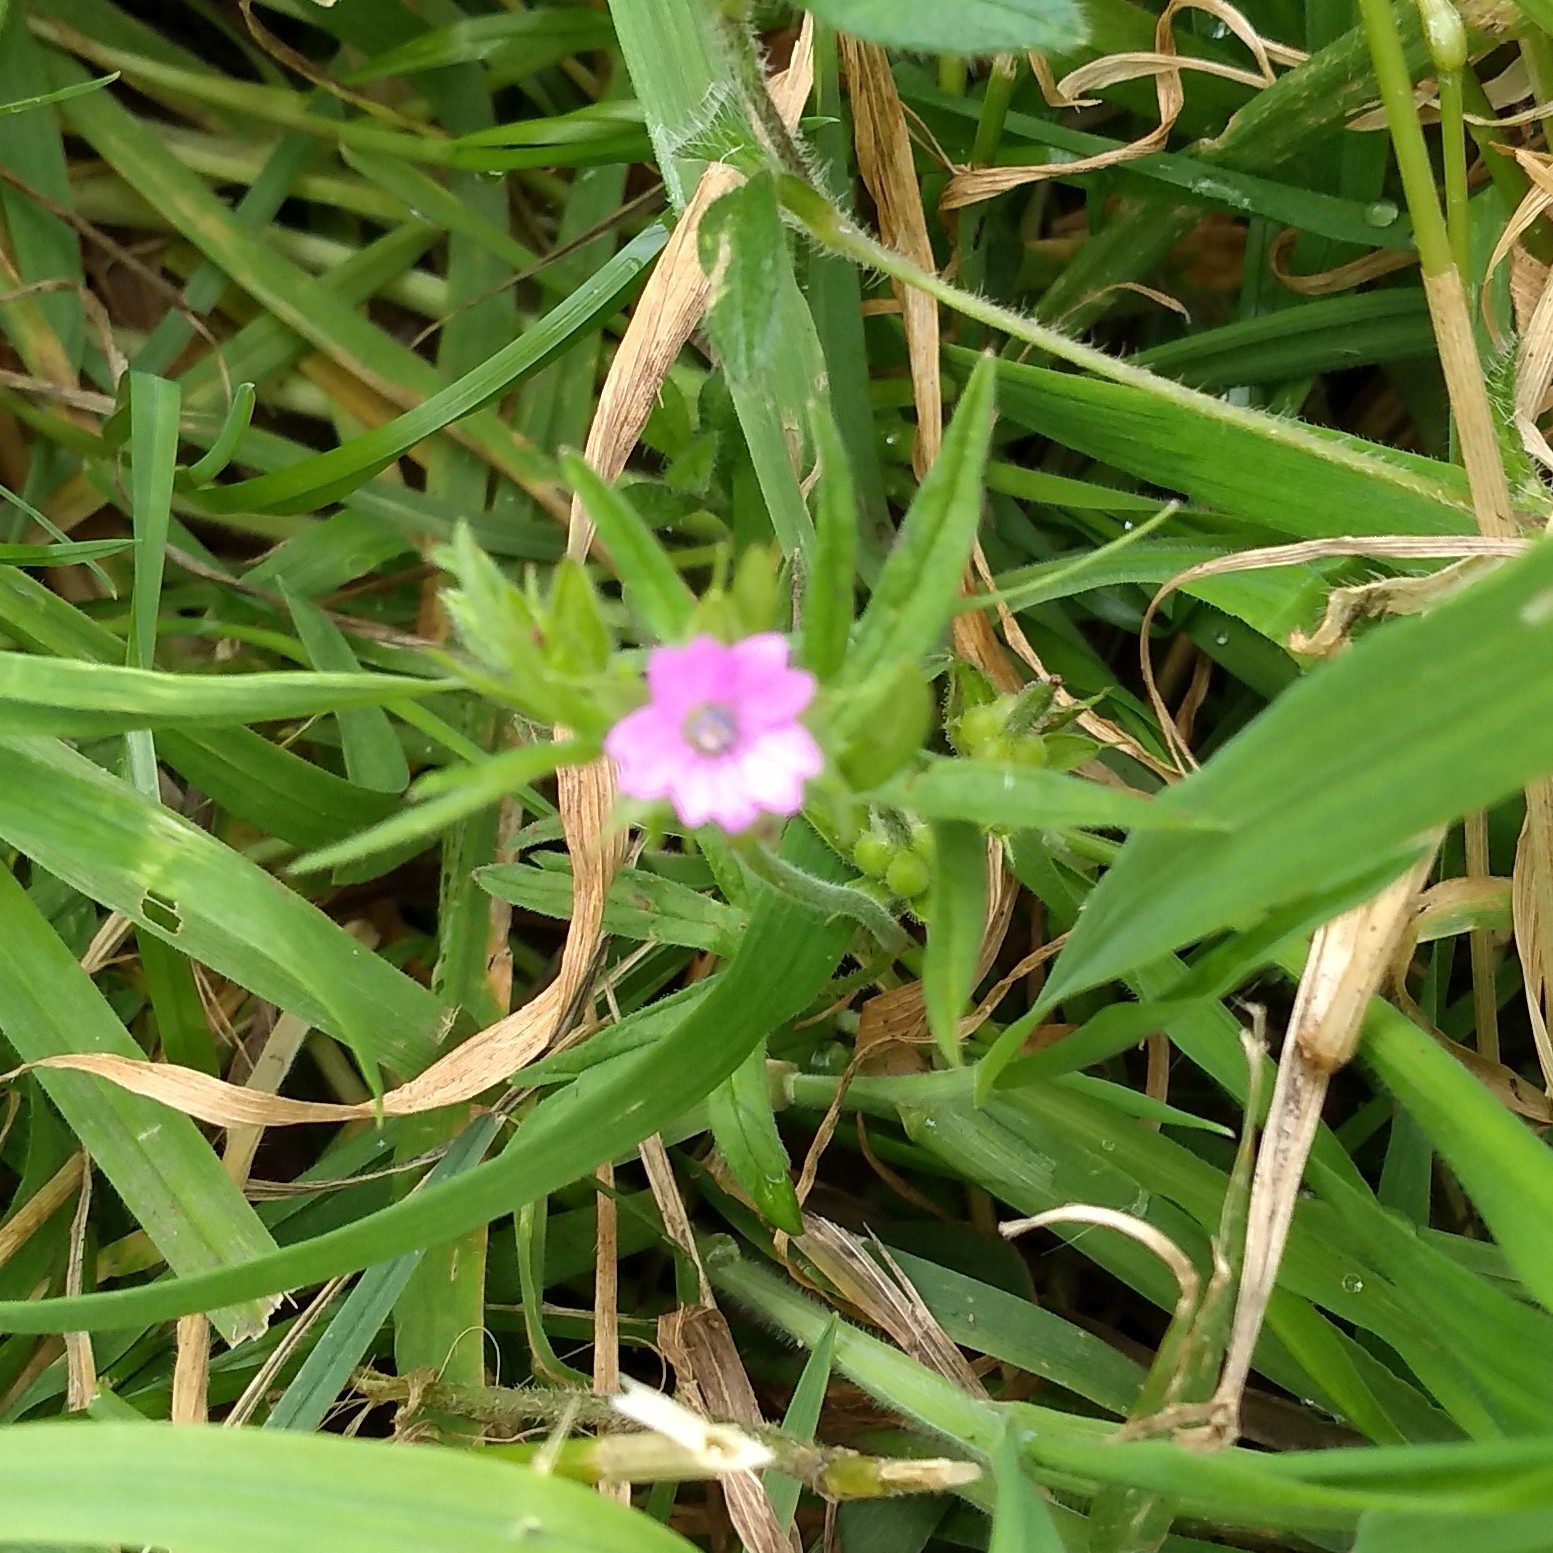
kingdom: Plantae
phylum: Tracheophyta
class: Magnoliopsida
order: Geraniales
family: Geraniaceae
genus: Geranium
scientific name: Geranium dissectum
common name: Cut-leaved crane's-bill
